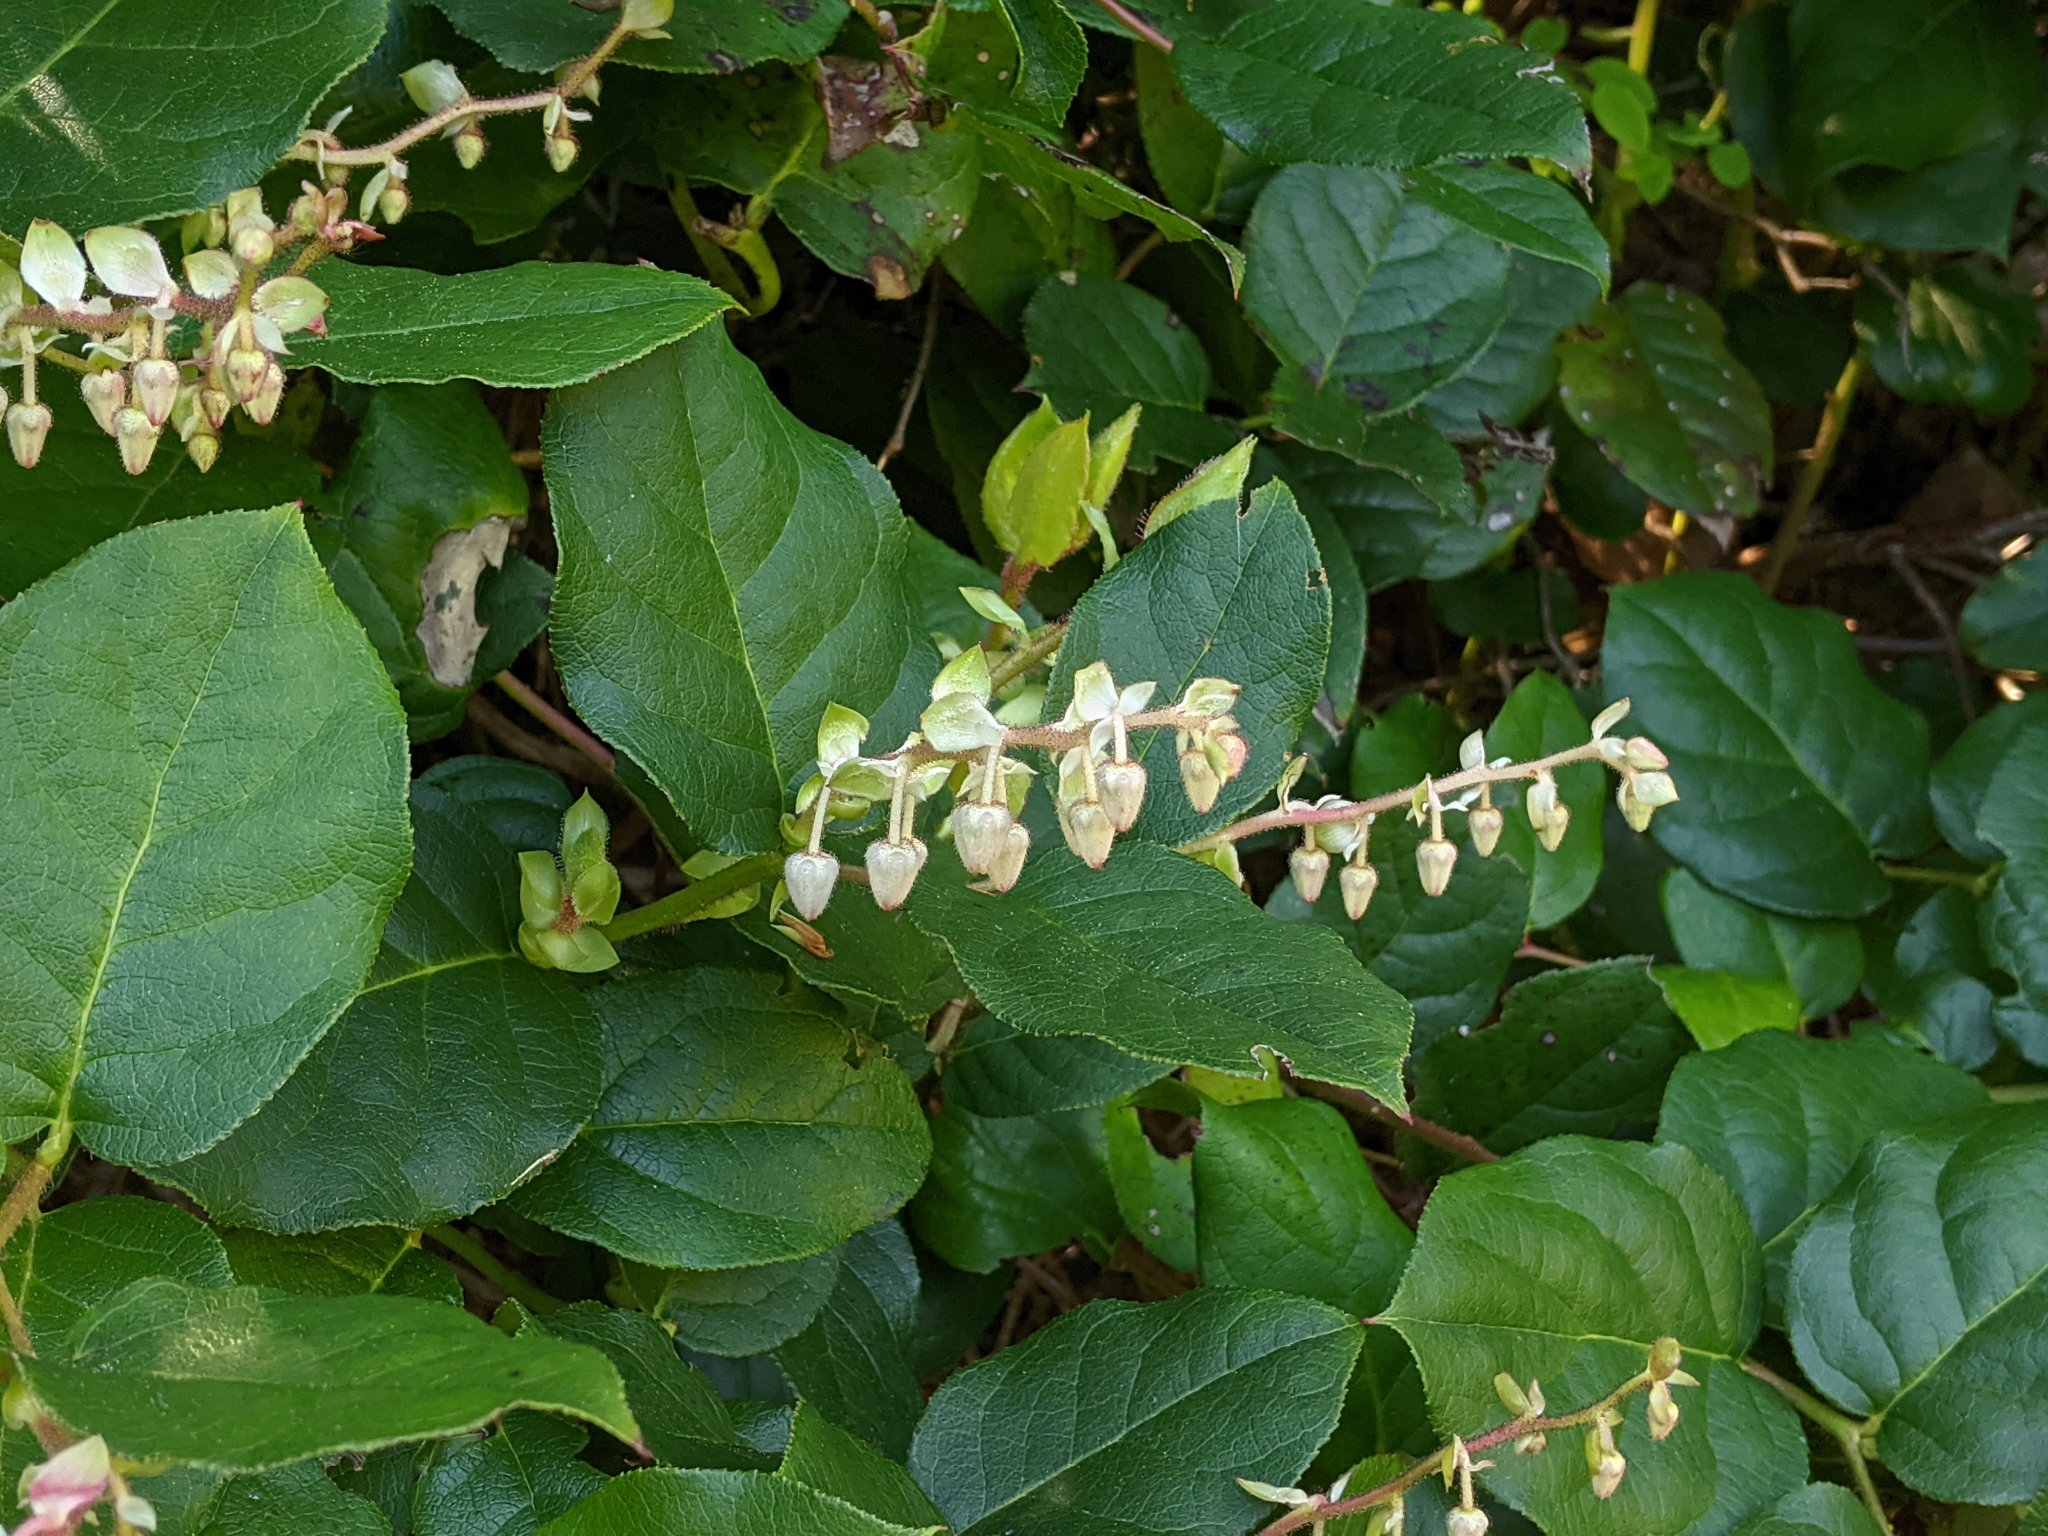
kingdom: Plantae
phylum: Tracheophyta
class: Magnoliopsida
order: Ericales
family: Ericaceae
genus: Gaultheria
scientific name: Gaultheria shallon
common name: Shallon
